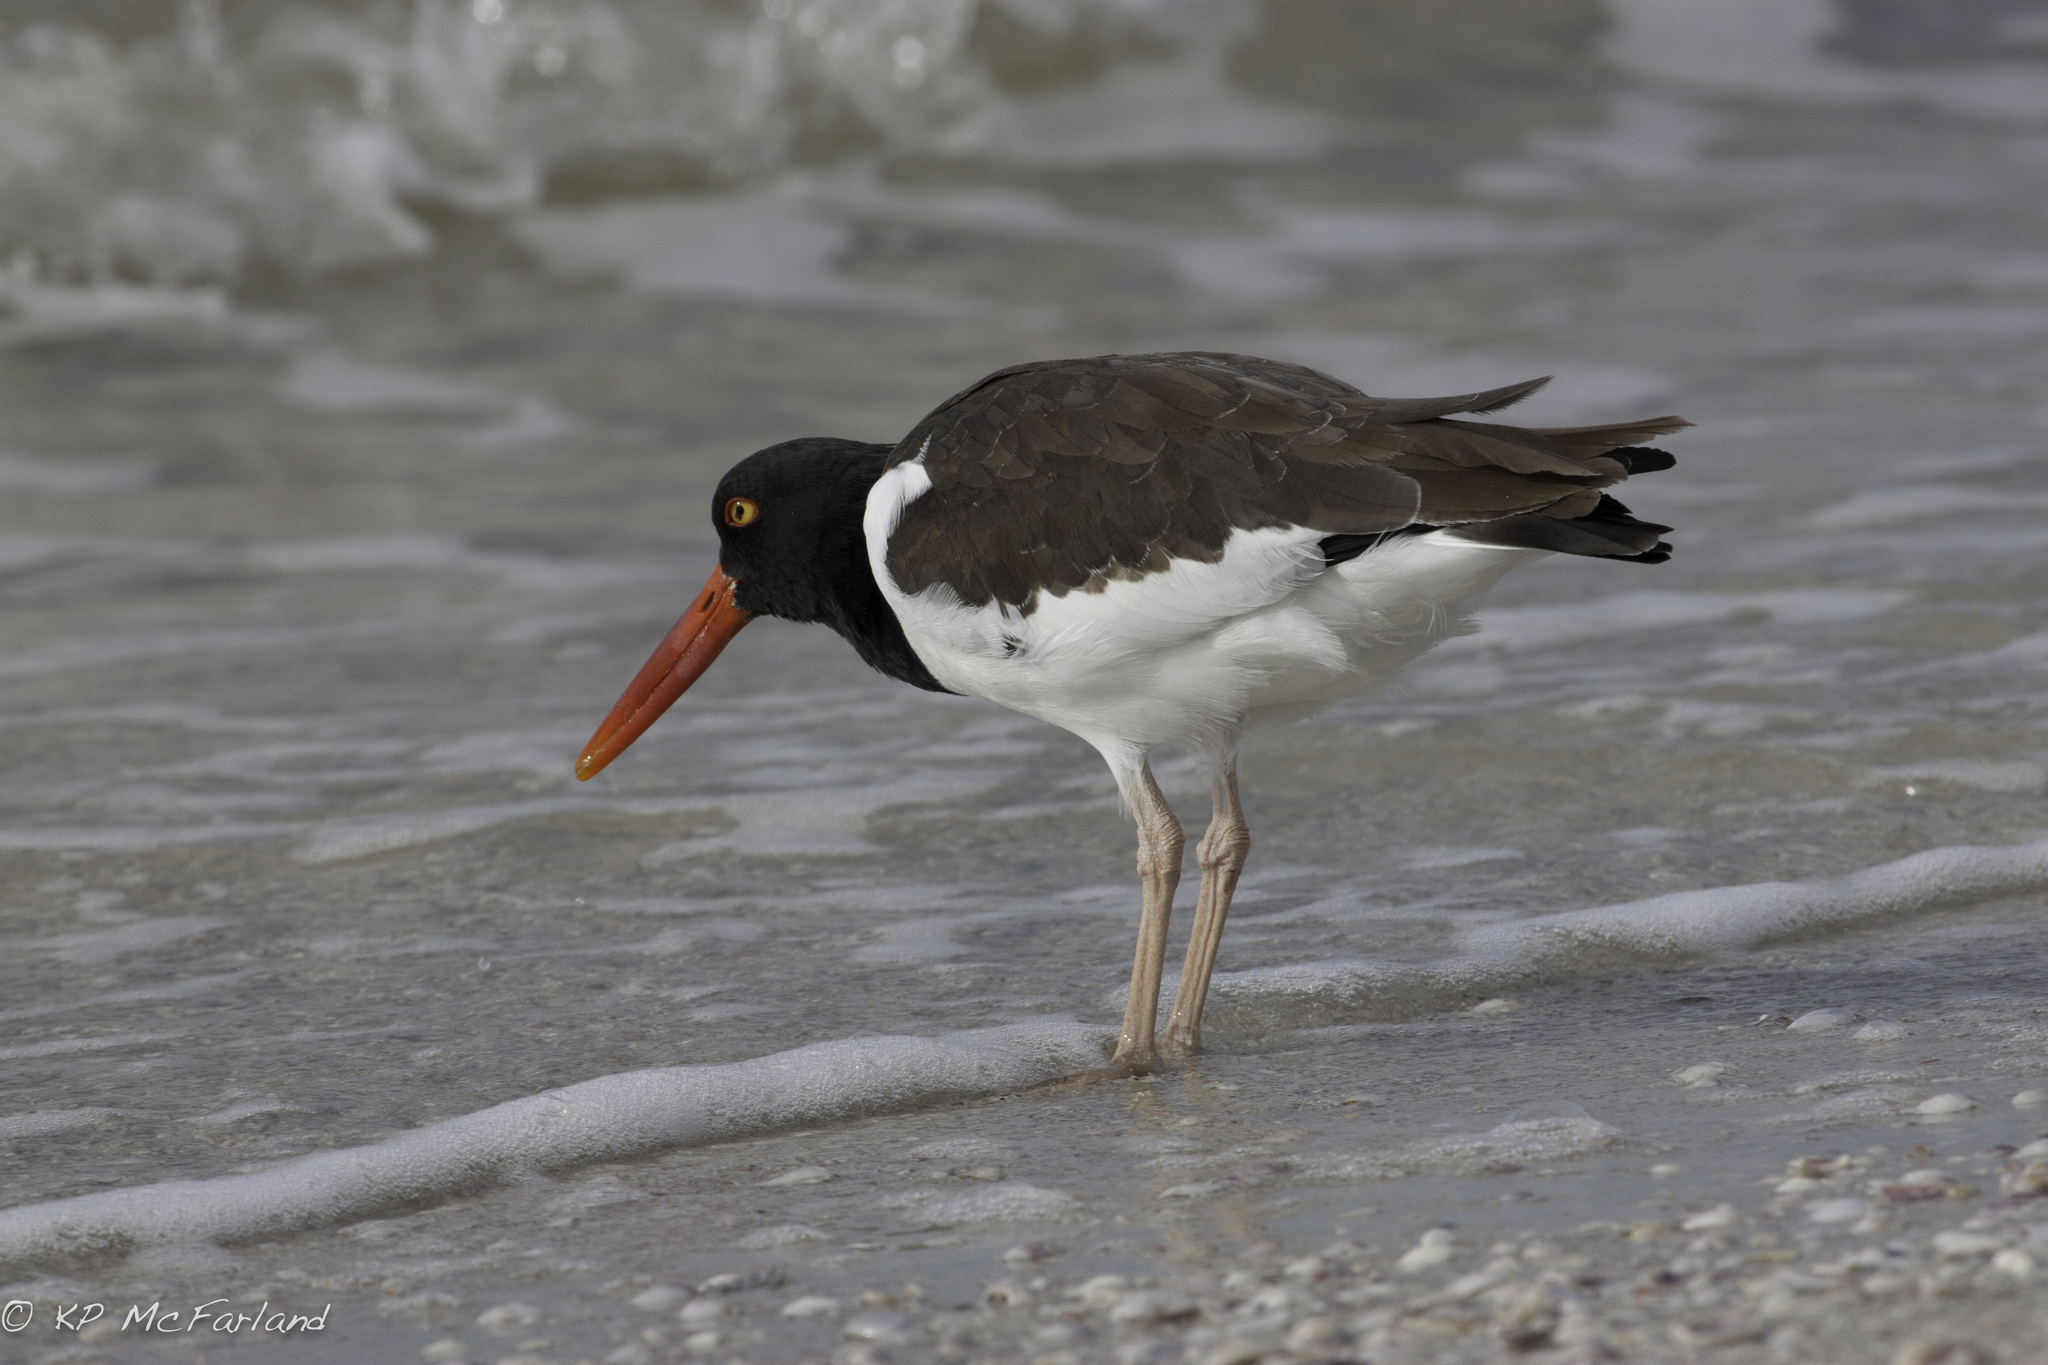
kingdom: Animalia
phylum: Chordata
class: Aves
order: Charadriiformes
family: Haematopodidae
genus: Haematopus
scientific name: Haematopus palliatus
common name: American oystercatcher
